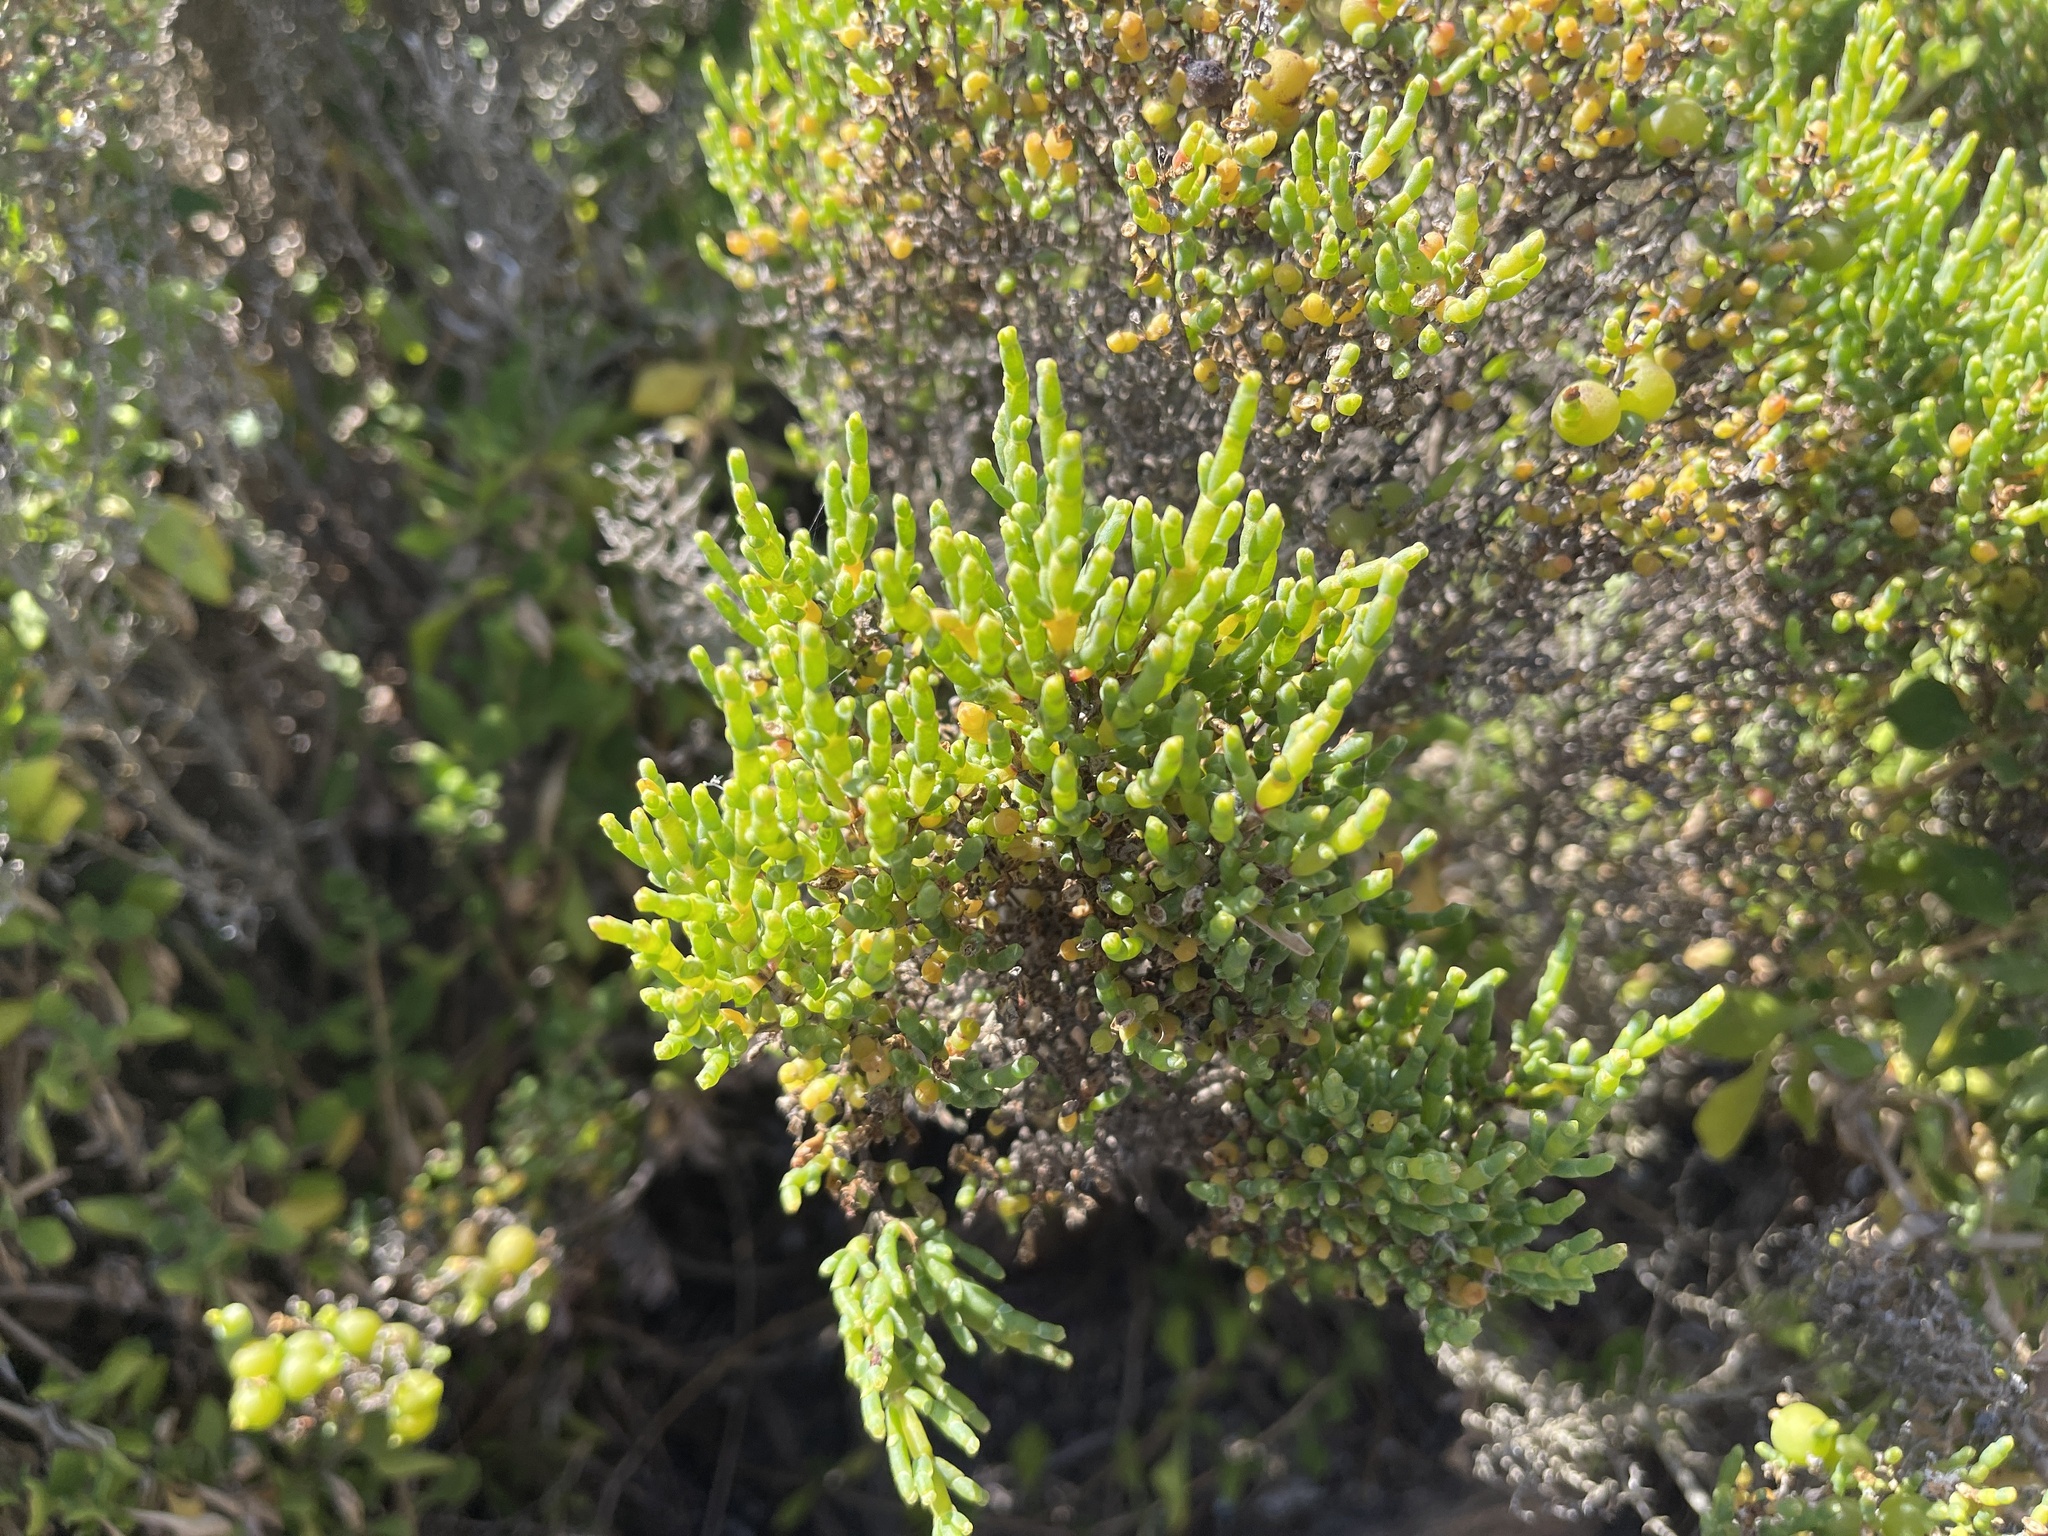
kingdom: Plantae
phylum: Tracheophyta
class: Magnoliopsida
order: Caryophyllales
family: Amaranthaceae
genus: Tecticornia
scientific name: Tecticornia arbuscula
